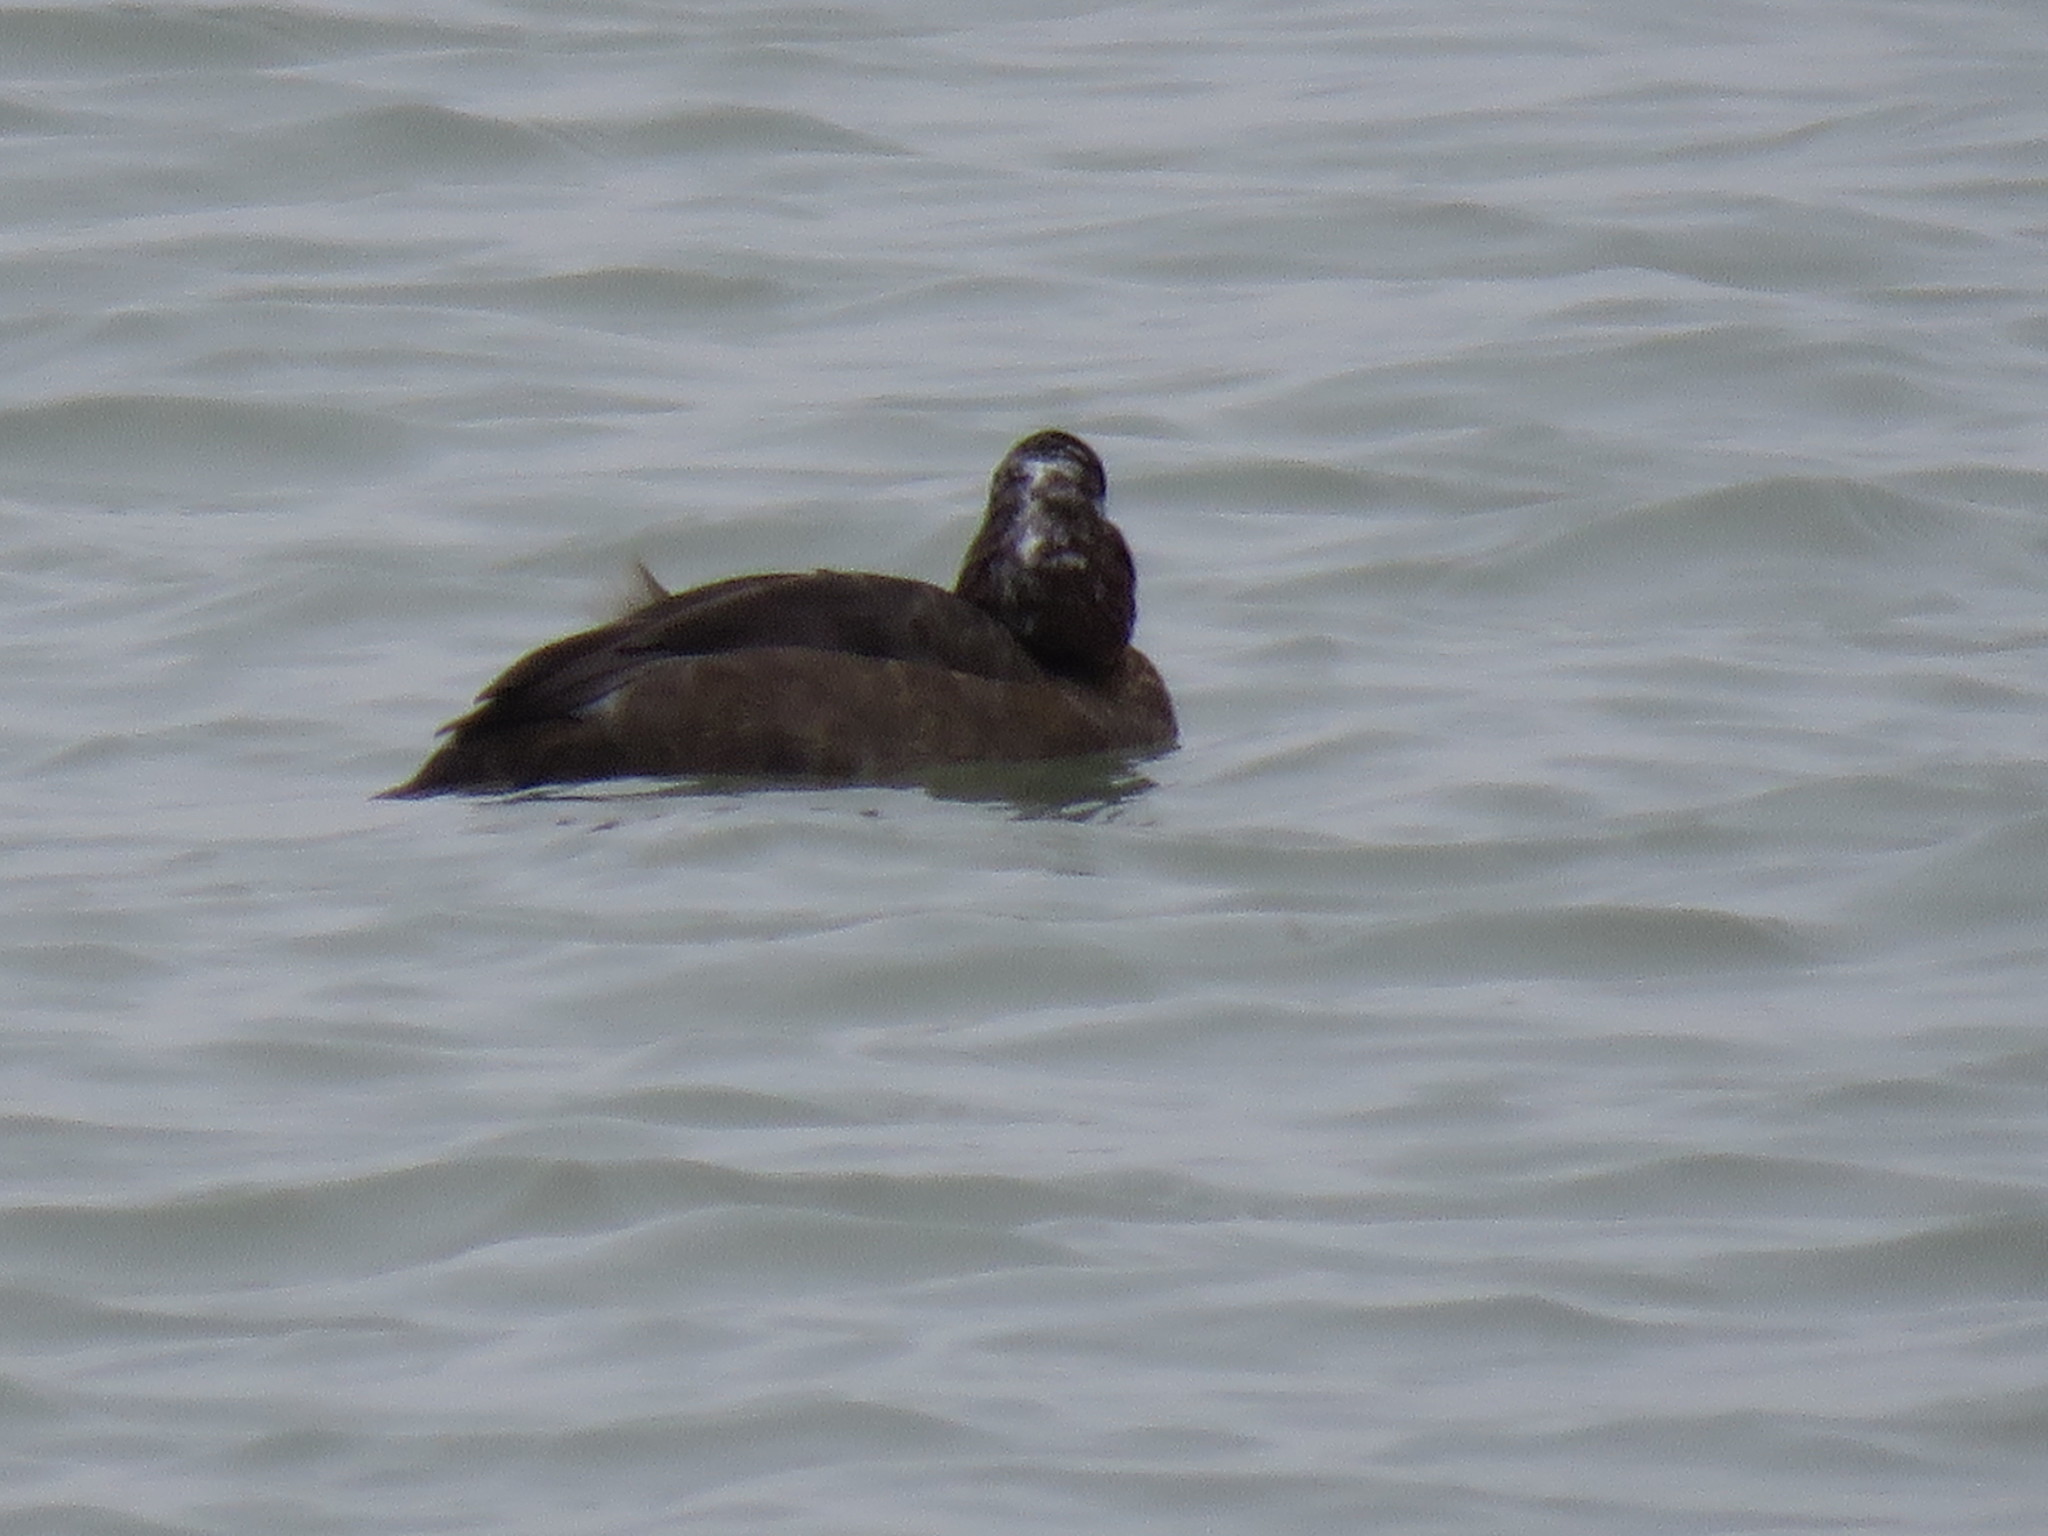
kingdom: Animalia
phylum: Chordata
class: Aves
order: Anseriformes
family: Anatidae
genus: Aythya
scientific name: Aythya americana
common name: Redhead
